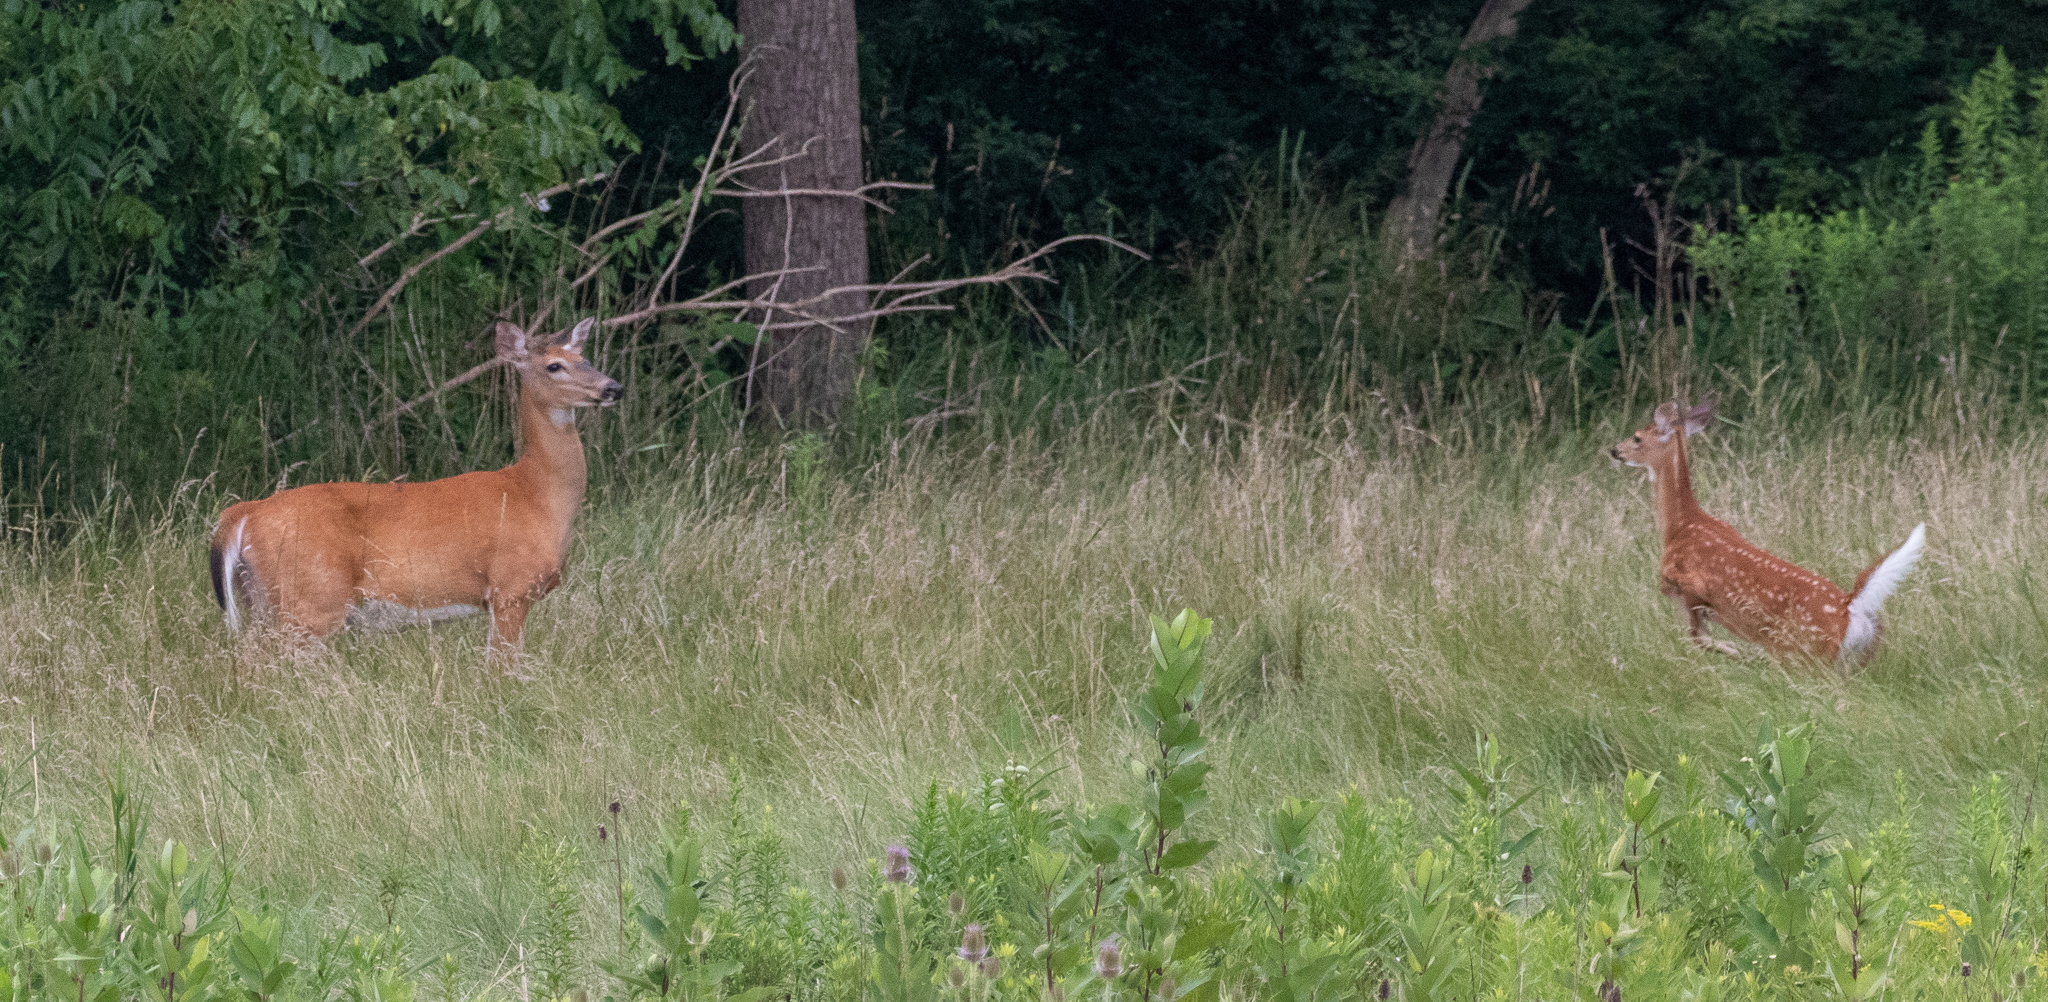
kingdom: Animalia
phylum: Chordata
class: Mammalia
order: Artiodactyla
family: Cervidae
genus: Odocoileus
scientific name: Odocoileus virginianus
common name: White-tailed deer
